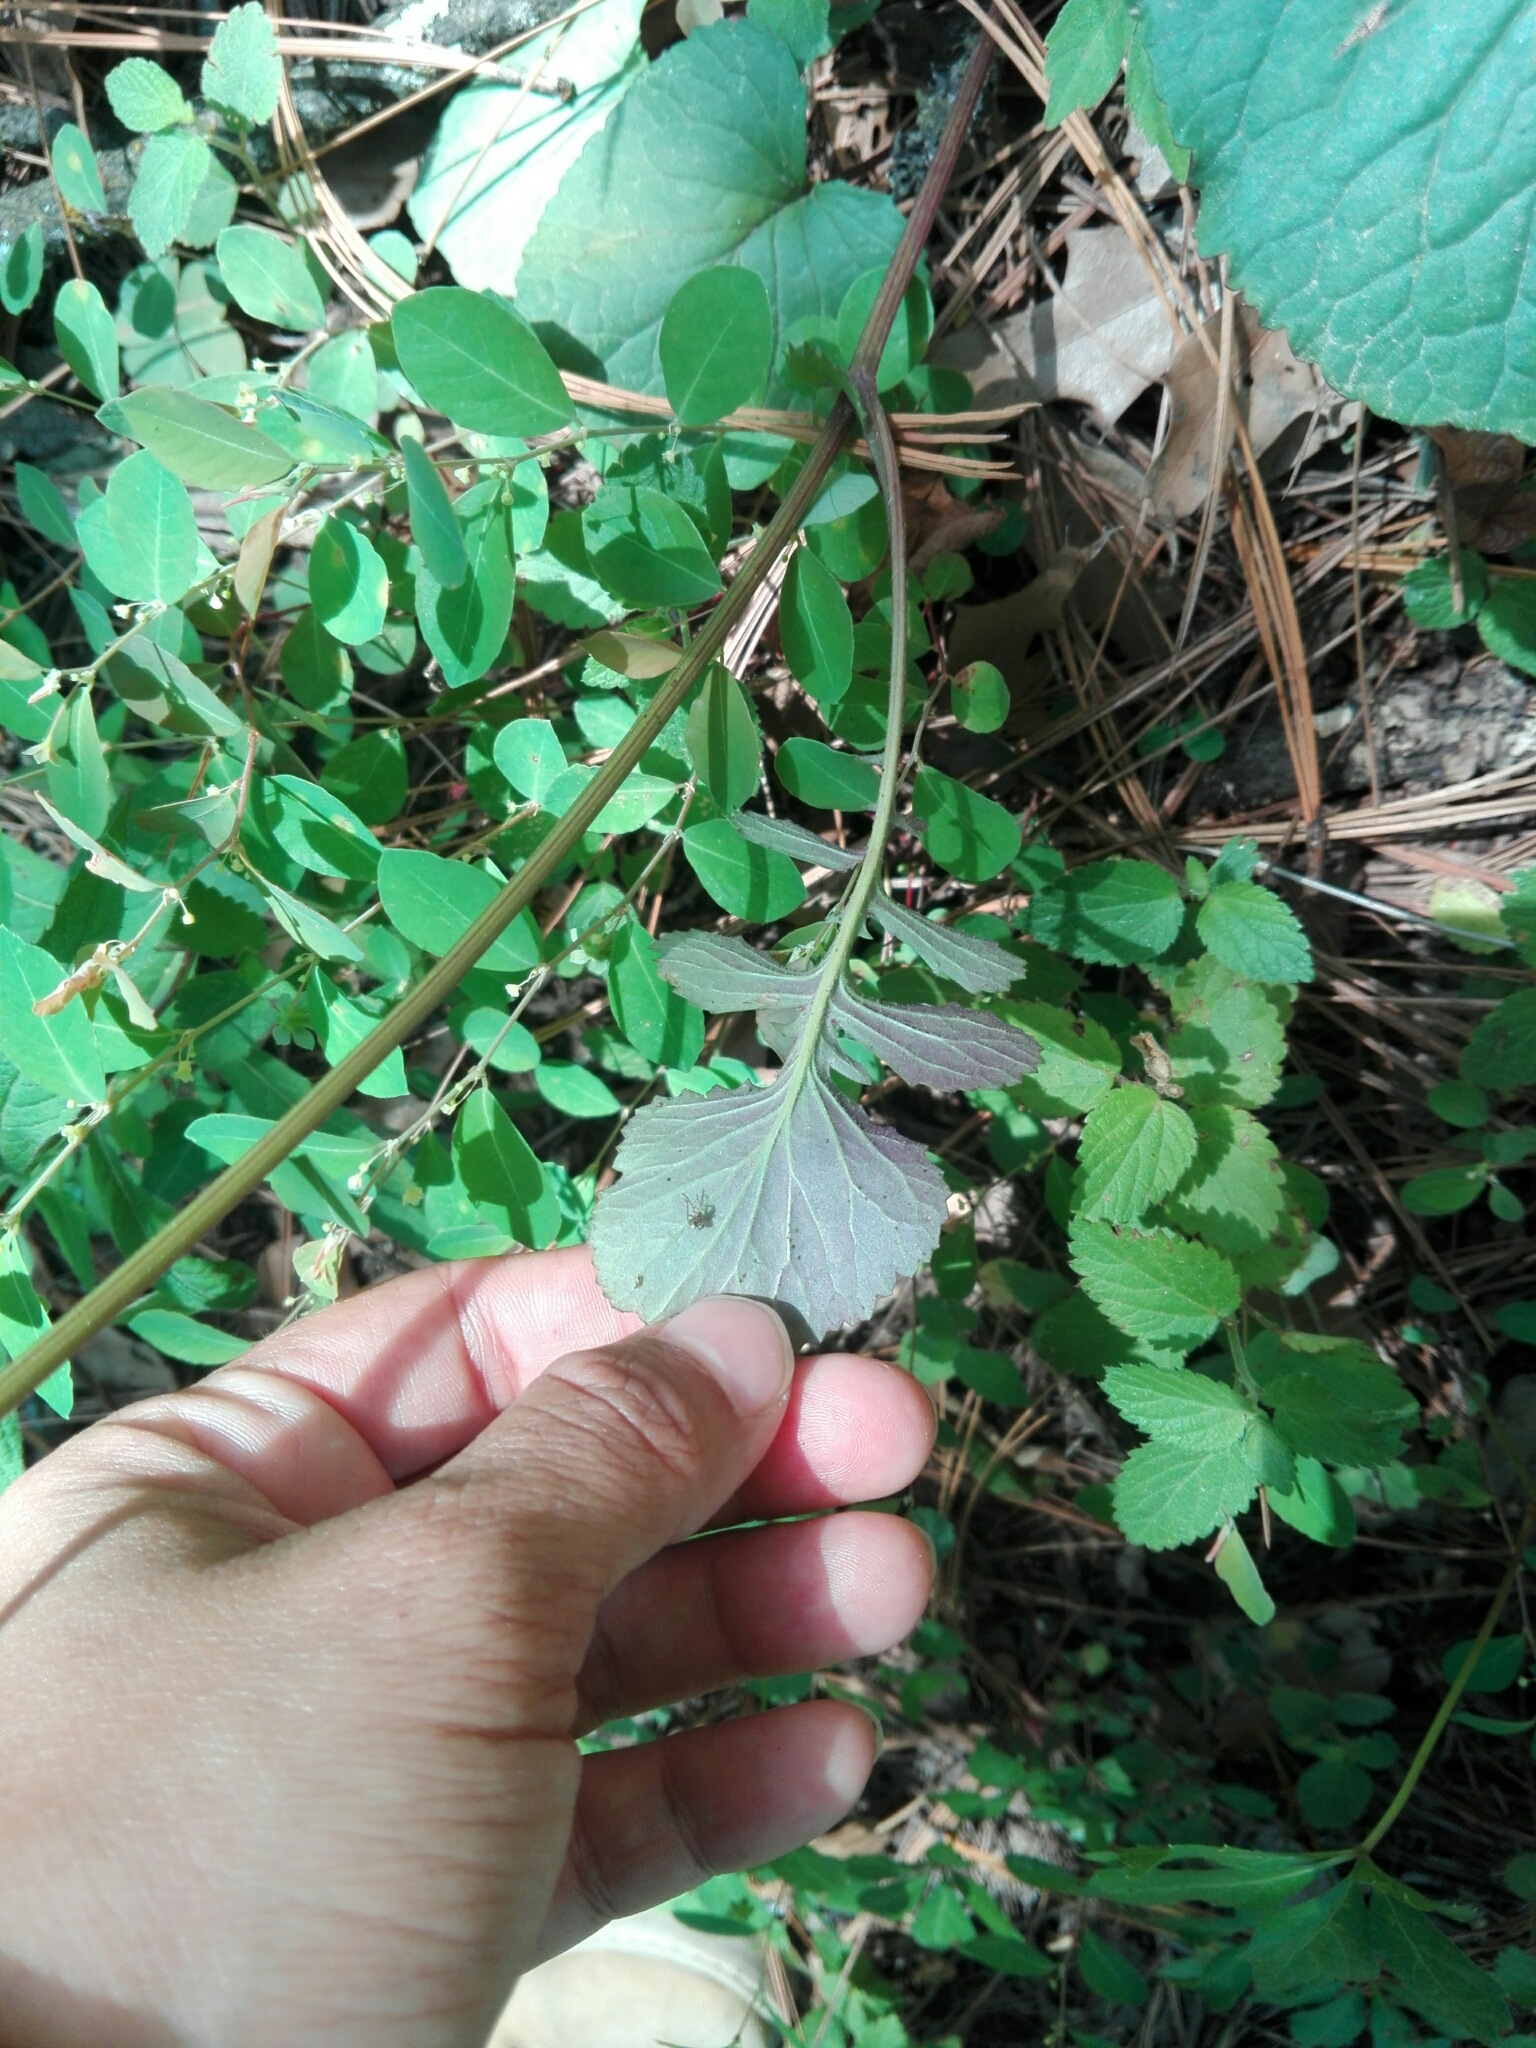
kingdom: Plantae
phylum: Tracheophyta
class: Magnoliopsida
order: Asterales
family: Asteraceae
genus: Packera
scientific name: Packera coahuilensis
